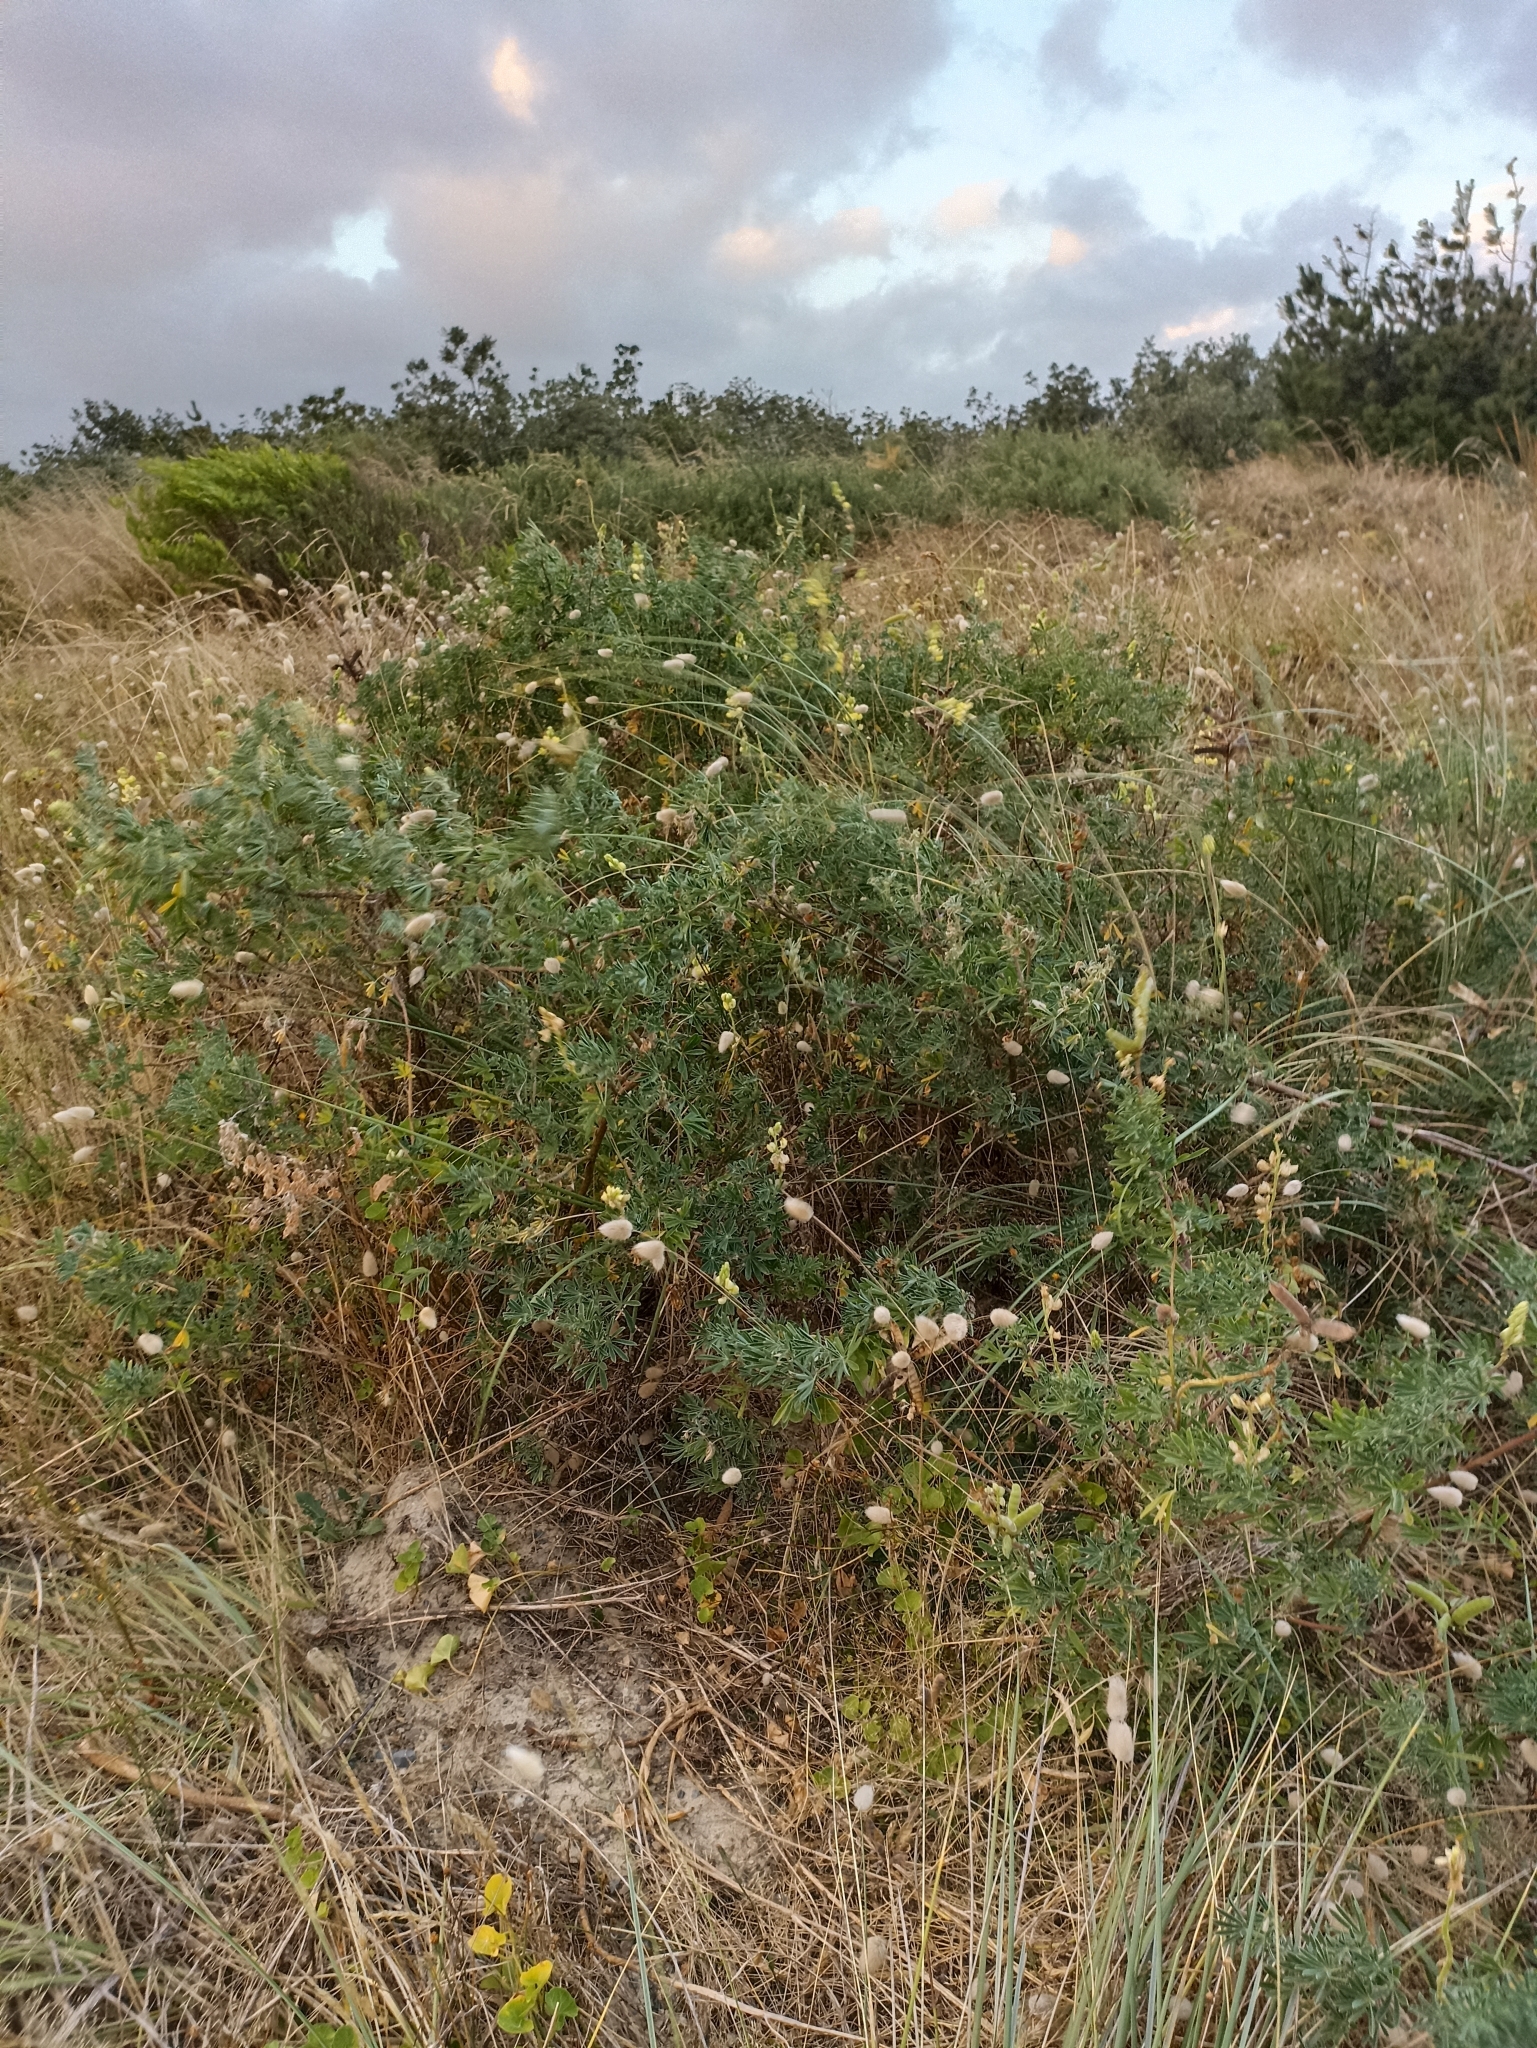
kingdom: Plantae
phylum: Tracheophyta
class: Magnoliopsida
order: Fabales
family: Fabaceae
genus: Lupinus
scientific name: Lupinus arboreus
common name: Yellow bush lupine
